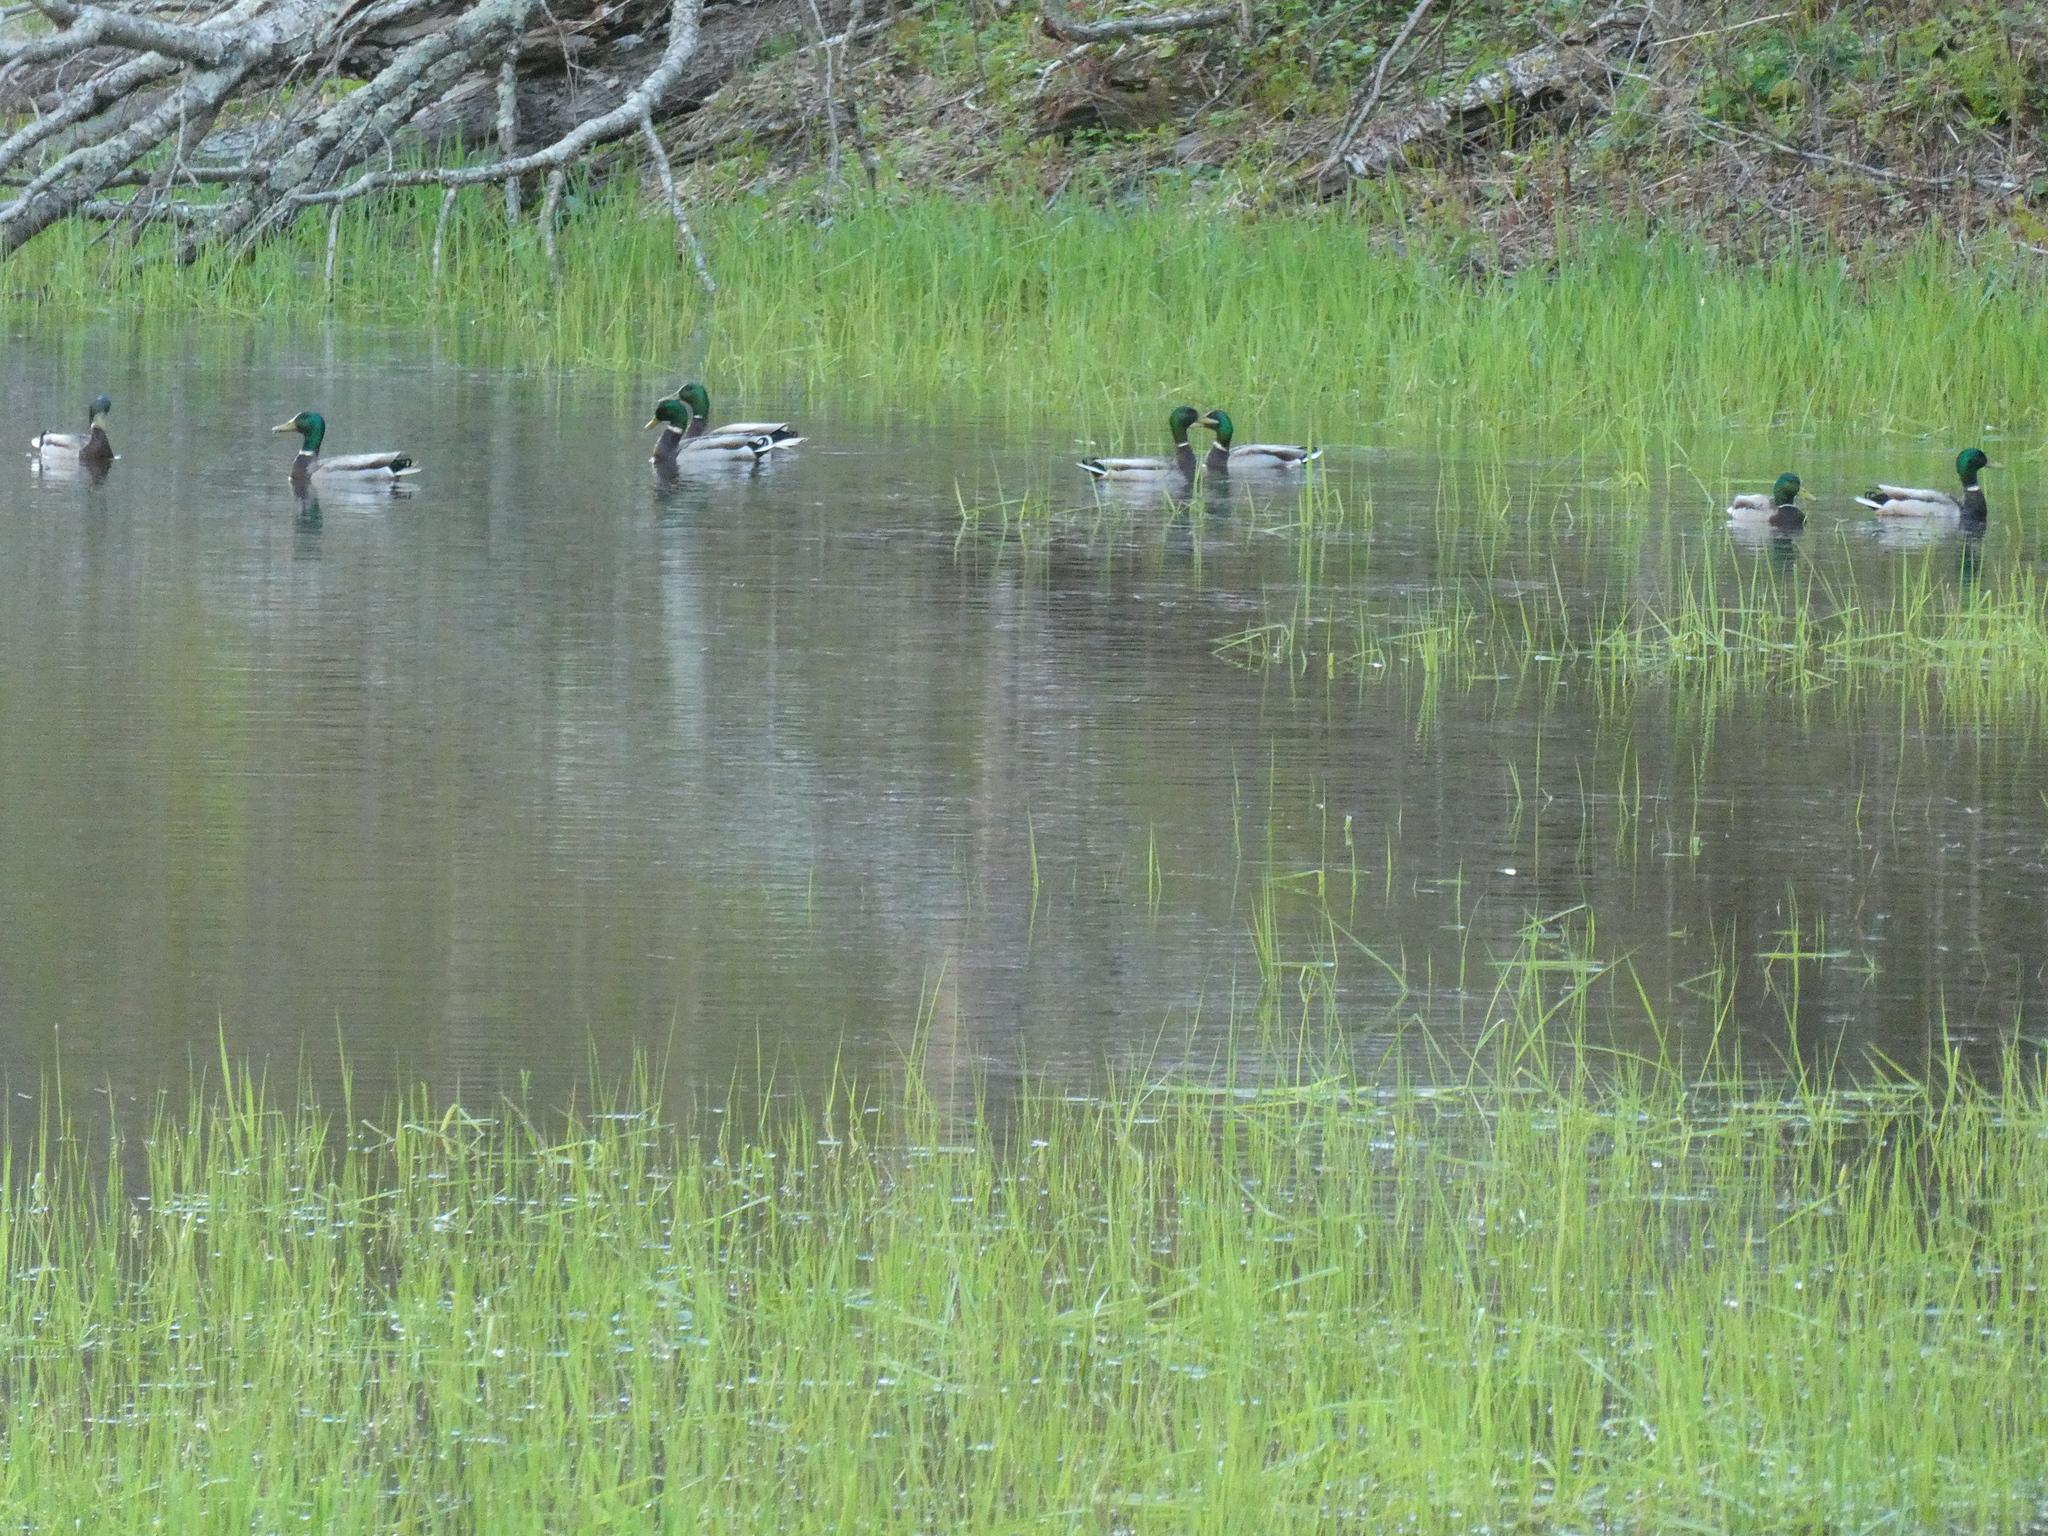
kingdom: Animalia
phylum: Chordata
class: Aves
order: Anseriformes
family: Anatidae
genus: Anas
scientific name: Anas platyrhynchos
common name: Mallard
